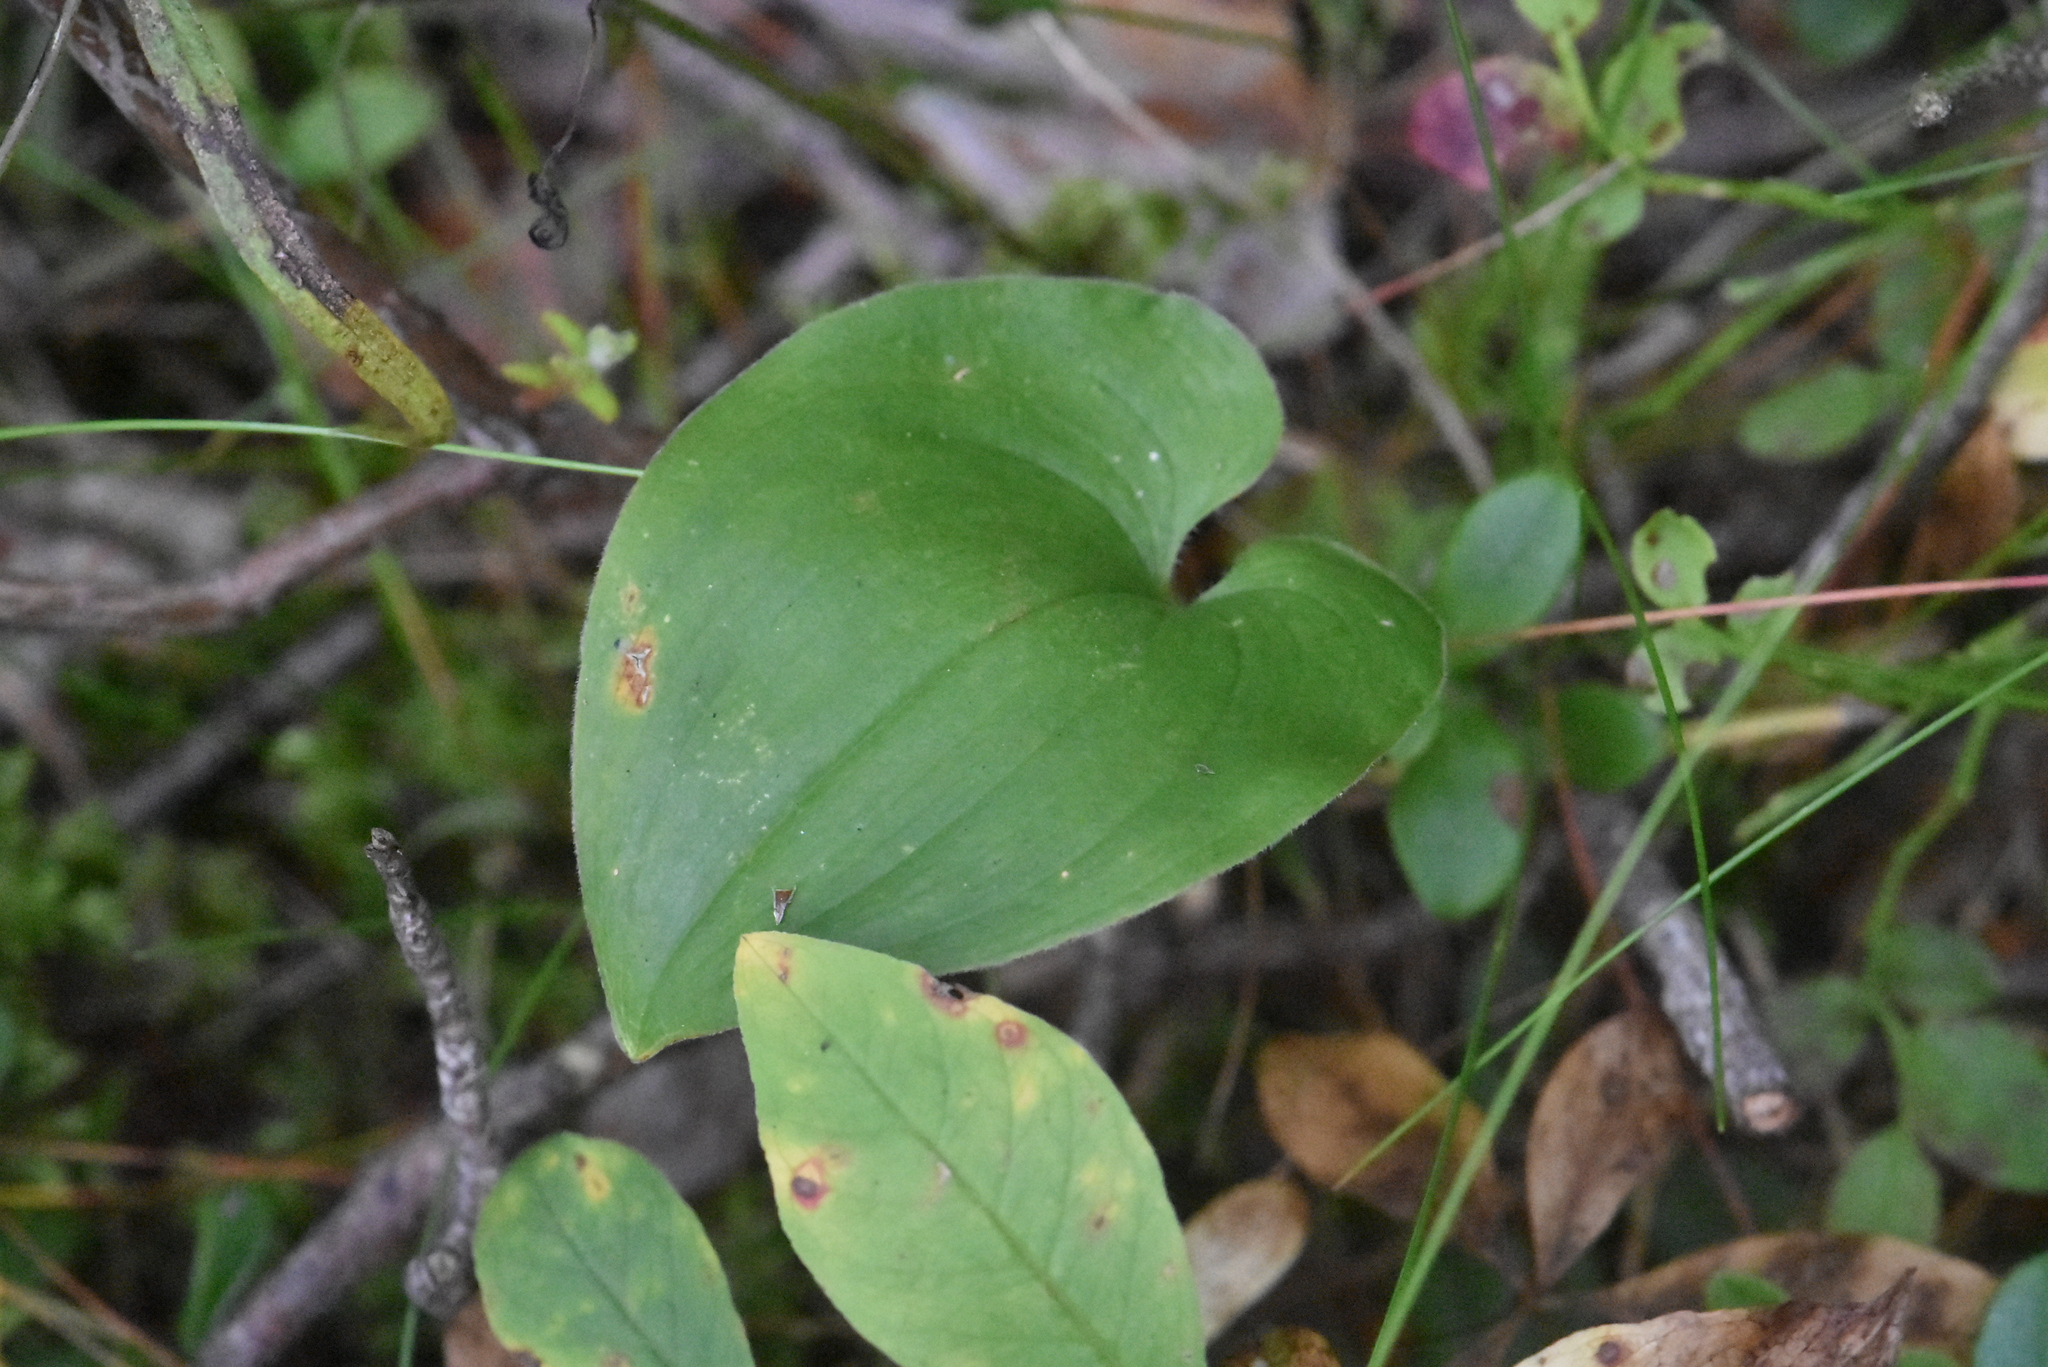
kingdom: Plantae
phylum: Tracheophyta
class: Liliopsida
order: Asparagales
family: Asparagaceae
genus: Maianthemum
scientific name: Maianthemum bifolium
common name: May lily
